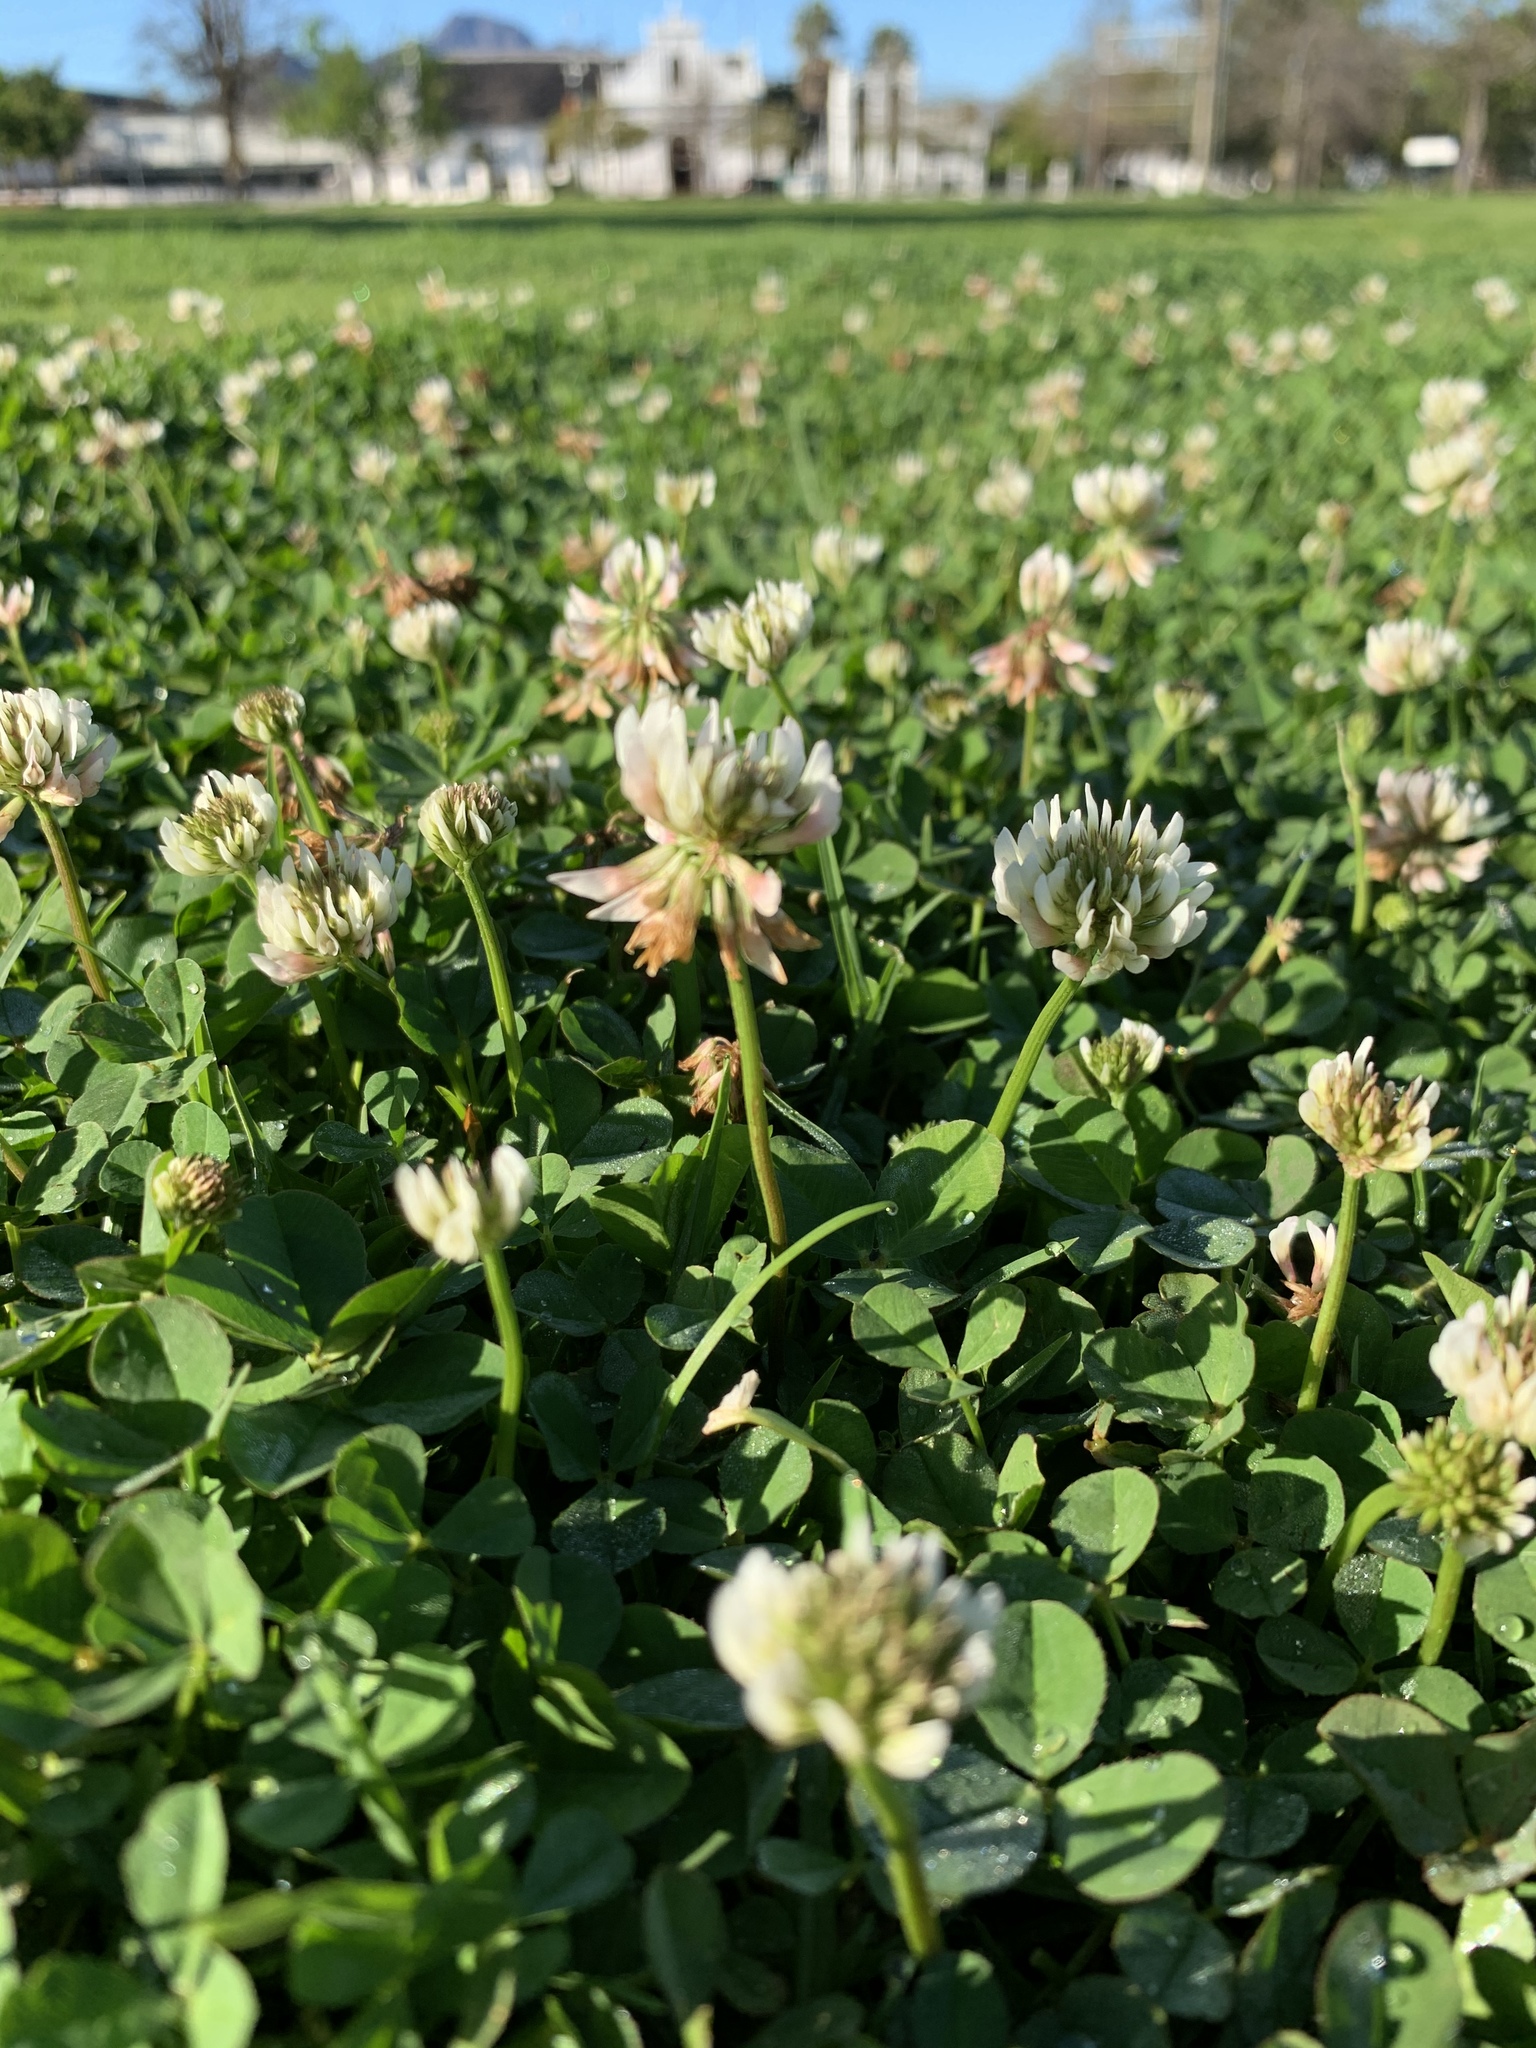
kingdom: Plantae
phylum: Tracheophyta
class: Magnoliopsida
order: Fabales
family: Fabaceae
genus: Trifolium
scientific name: Trifolium repens
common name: White clover
